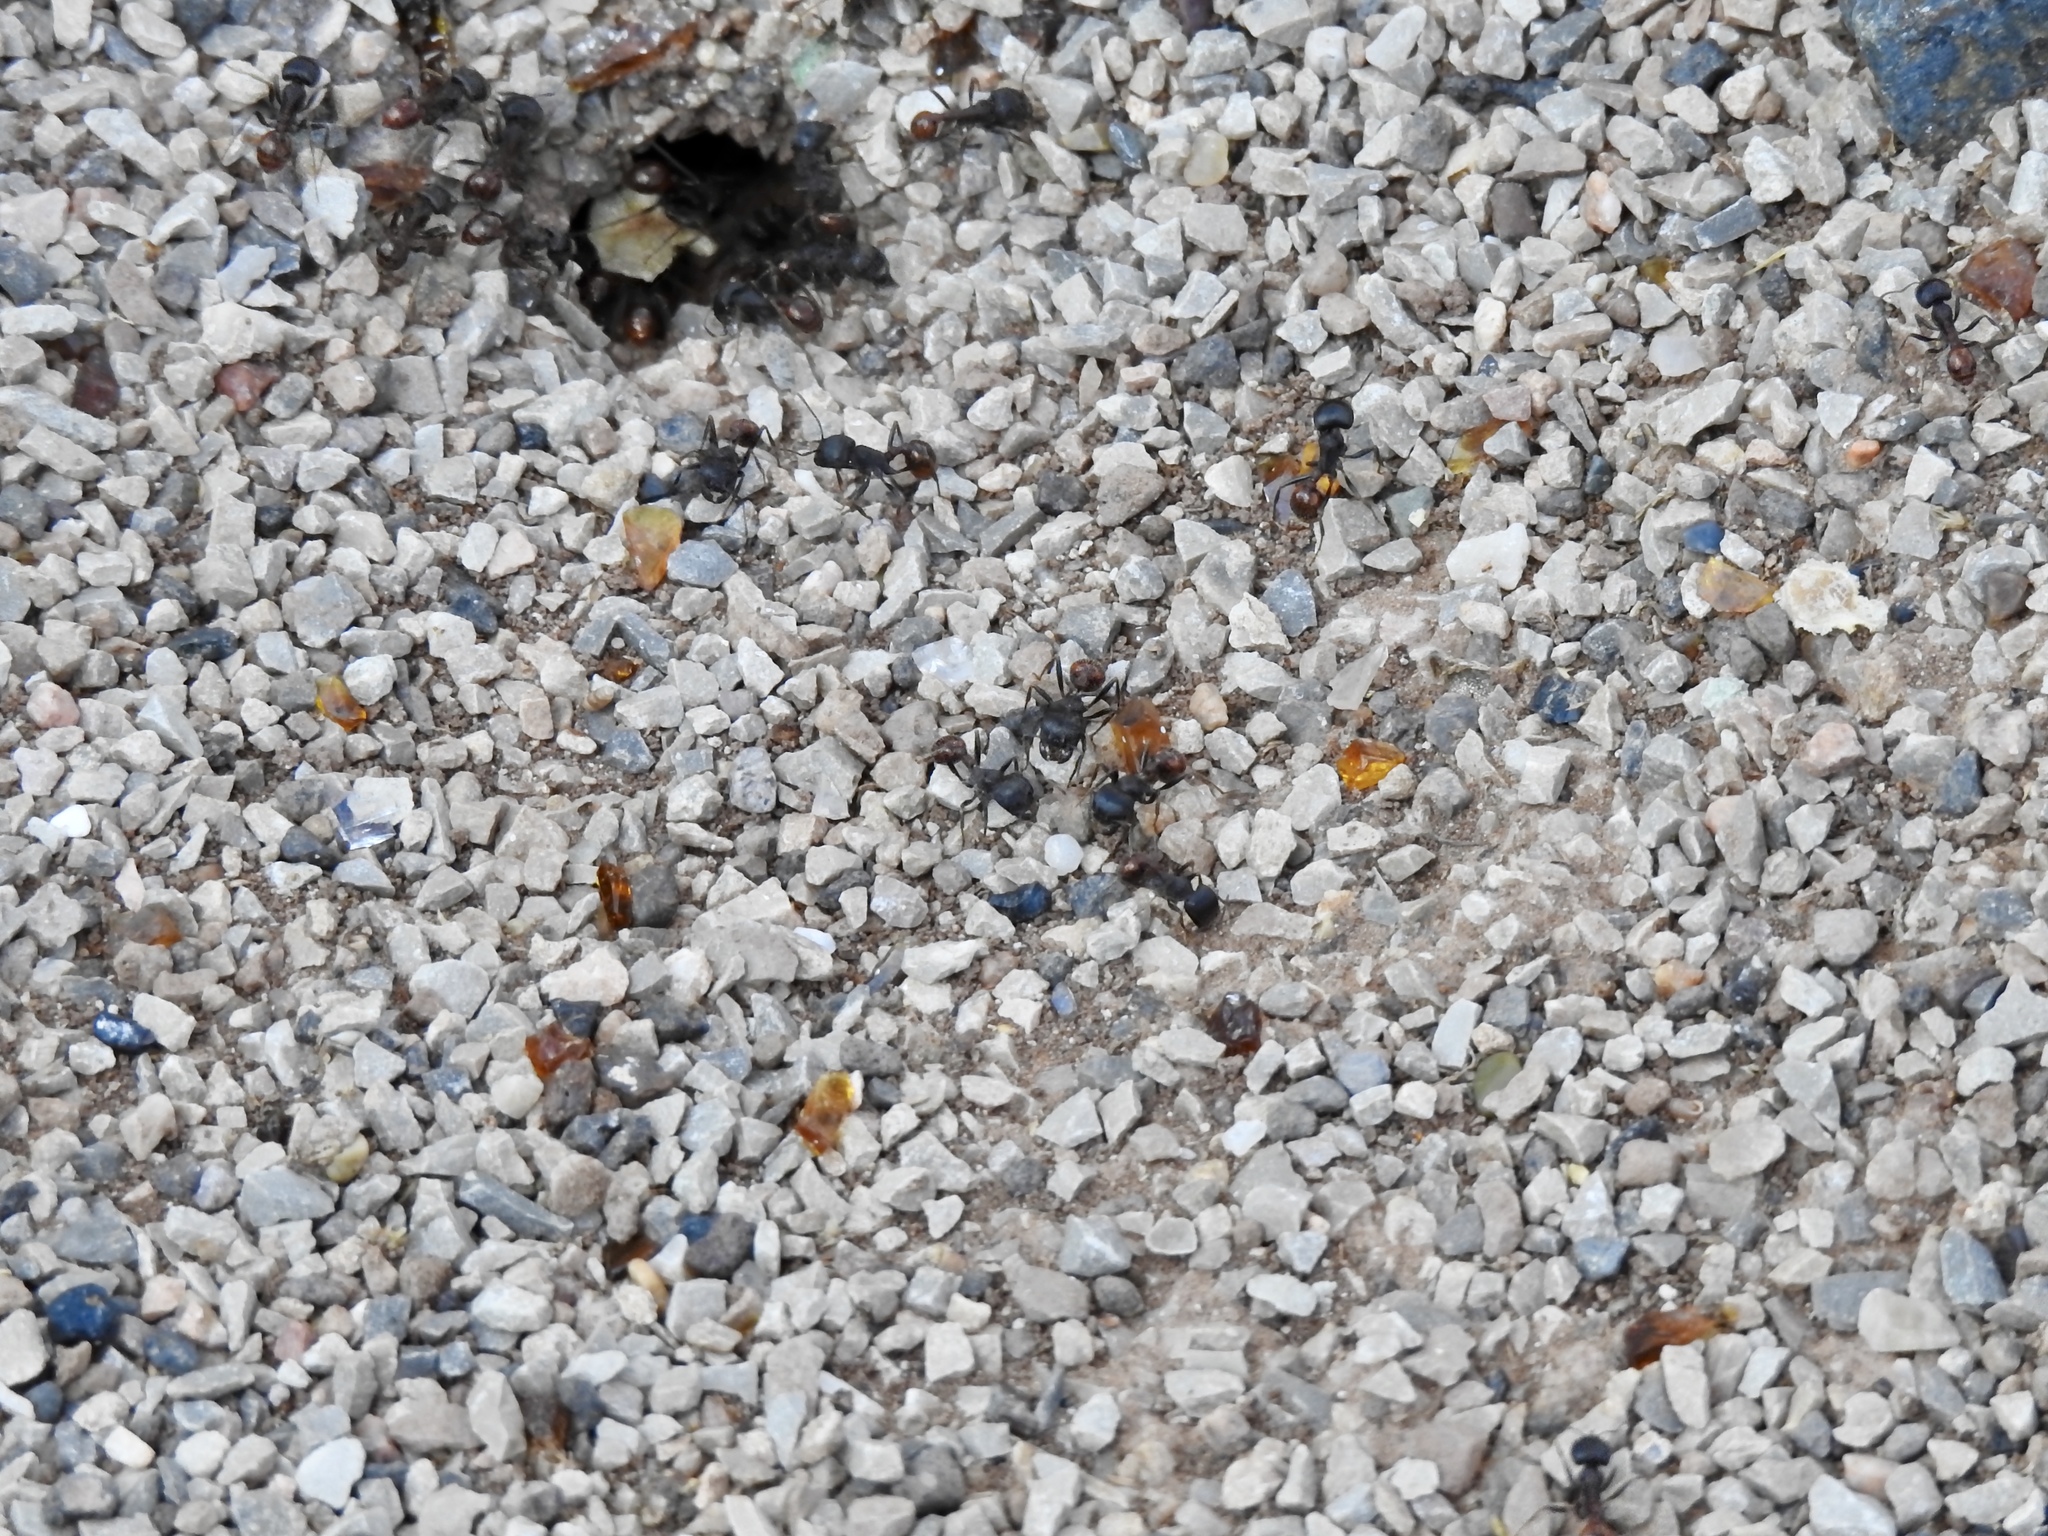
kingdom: Animalia
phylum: Arthropoda
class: Insecta
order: Hymenoptera
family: Formicidae
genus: Pogonomyrmex
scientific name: Pogonomyrmex rugosus
